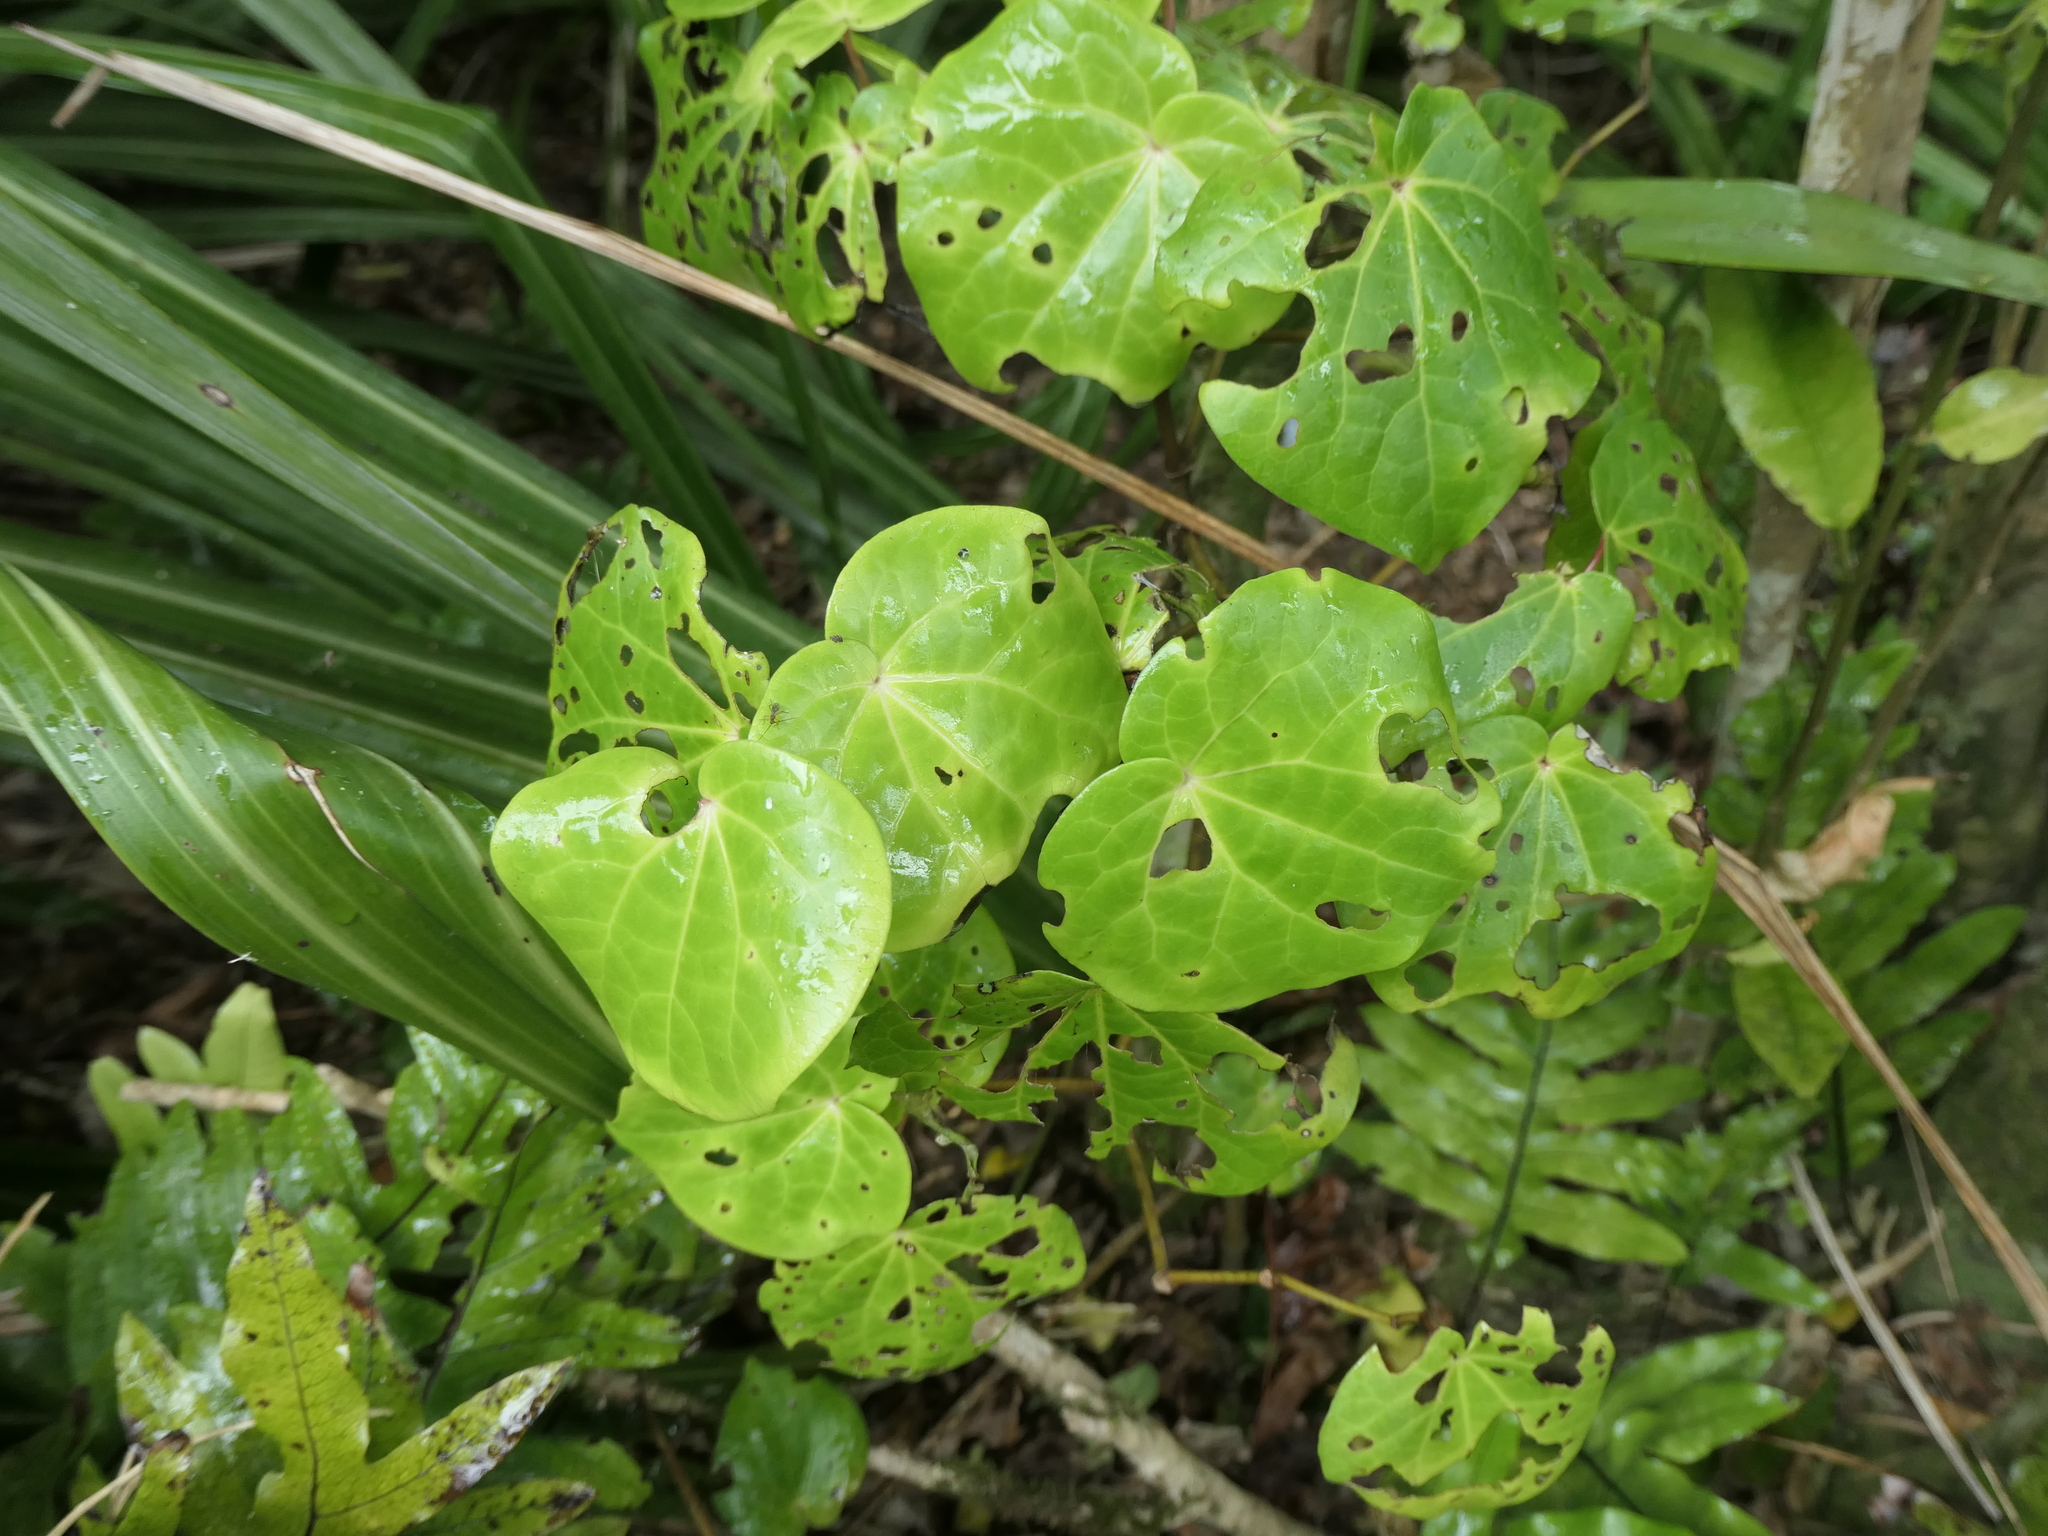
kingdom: Plantae
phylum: Tracheophyta
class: Magnoliopsida
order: Piperales
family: Piperaceae
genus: Macropiper
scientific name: Macropiper excelsum
